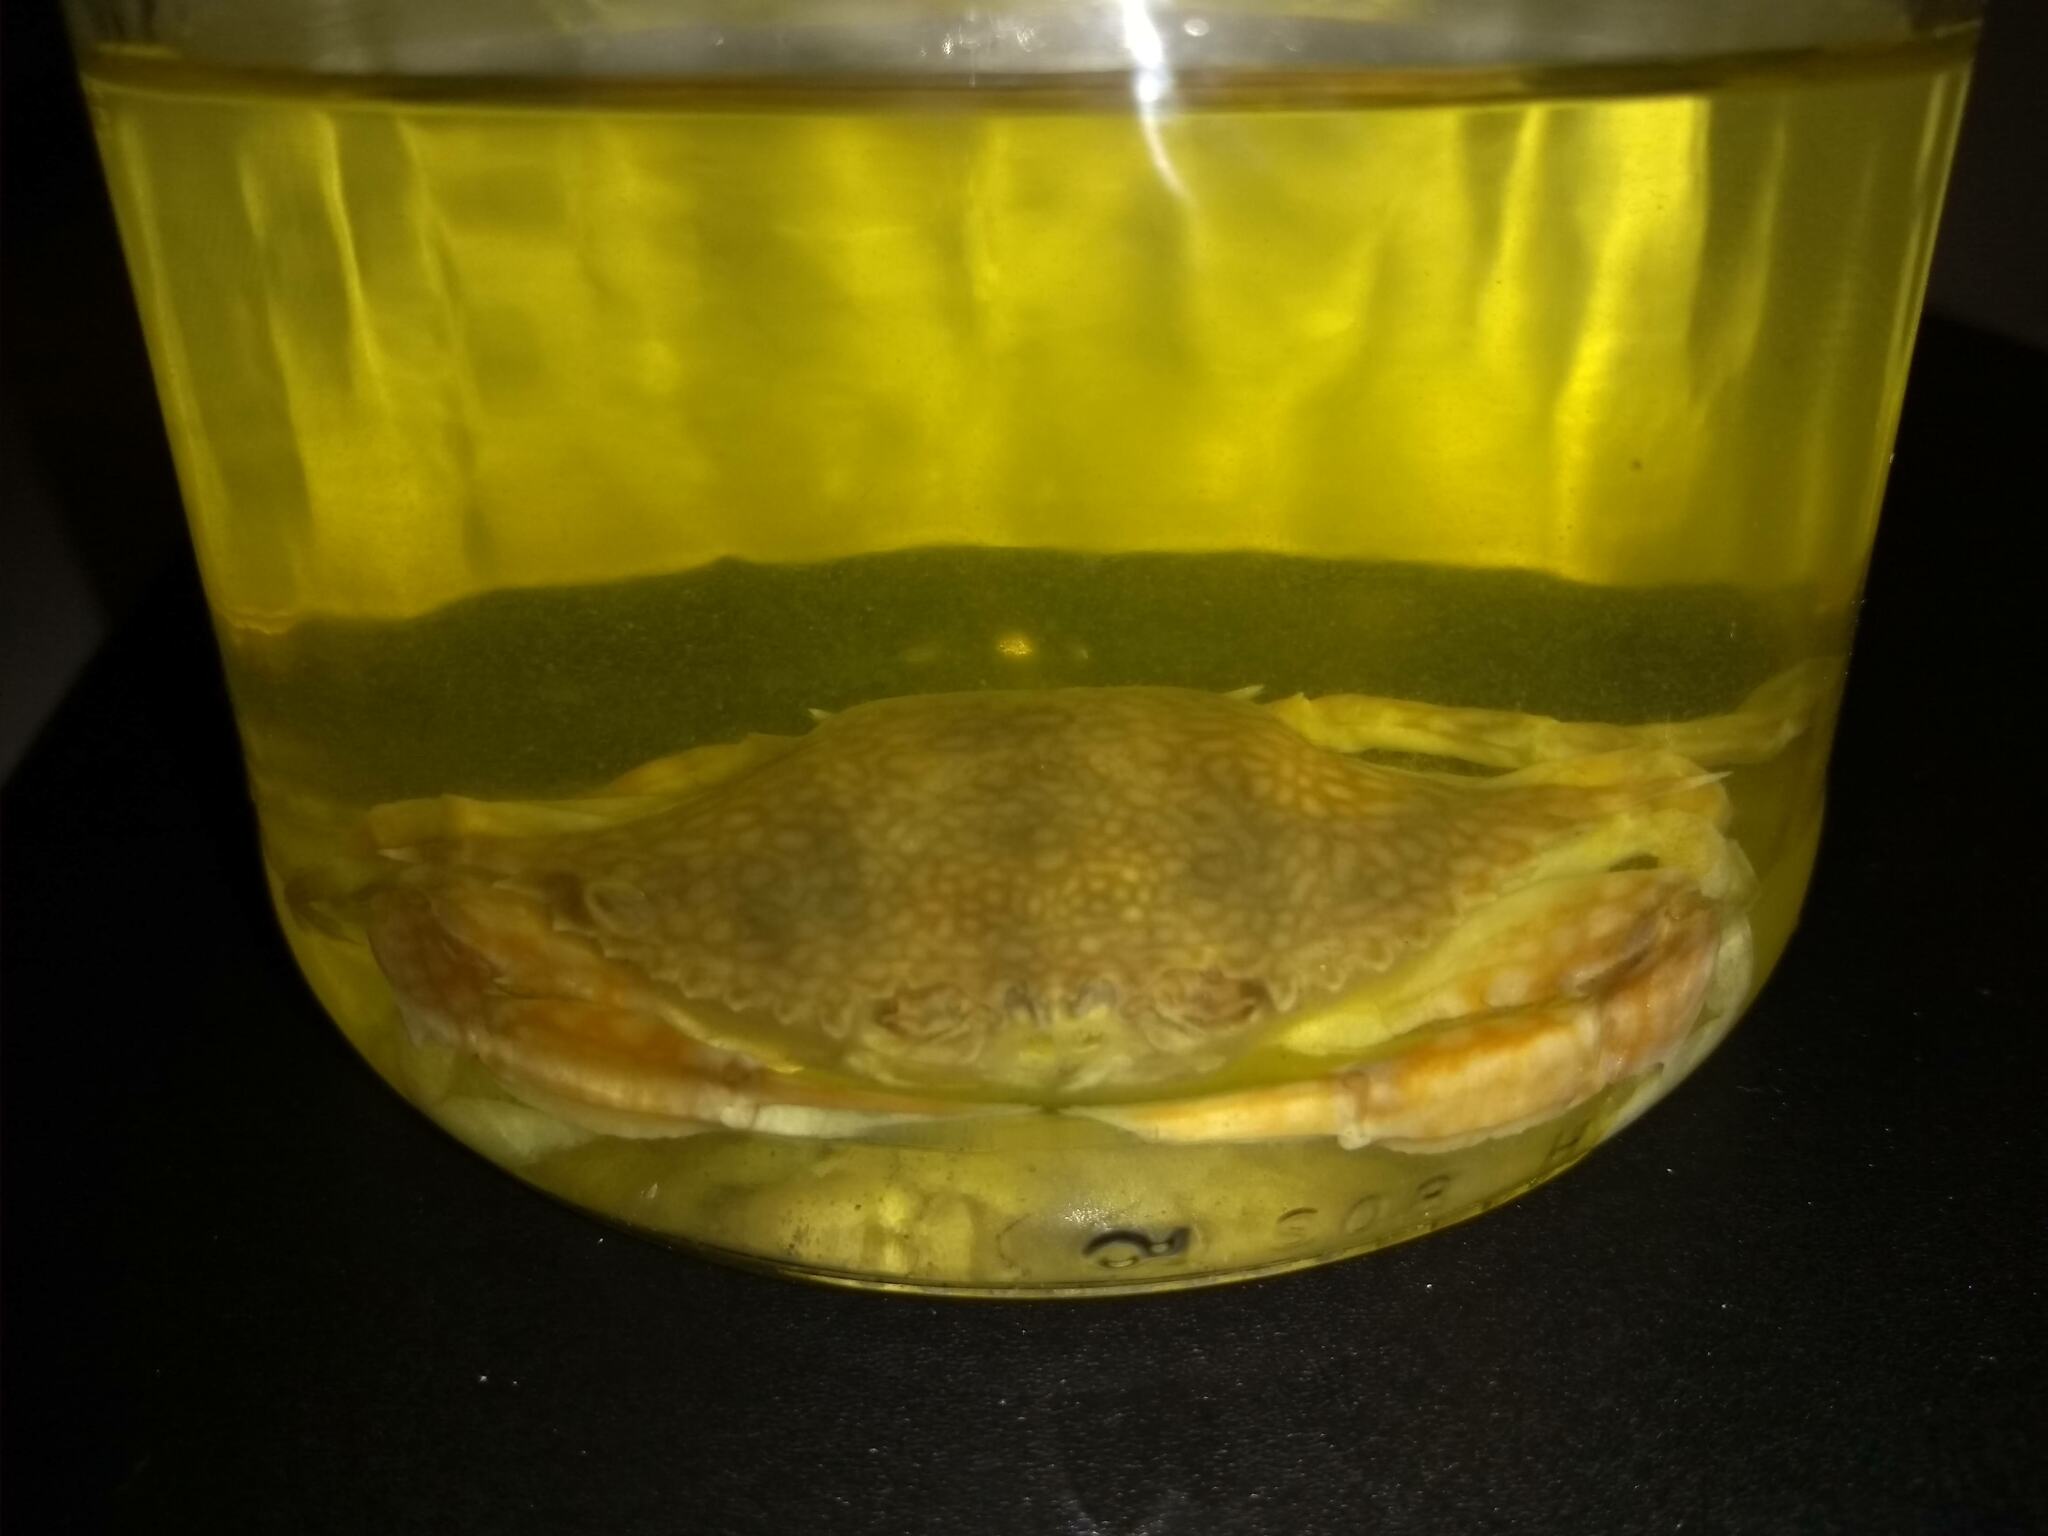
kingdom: Animalia
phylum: Arthropoda
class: Malacostraca
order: Decapoda
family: Portunidae
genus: Arenaeus
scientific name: Arenaeus cribrarius
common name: Speckled crab
